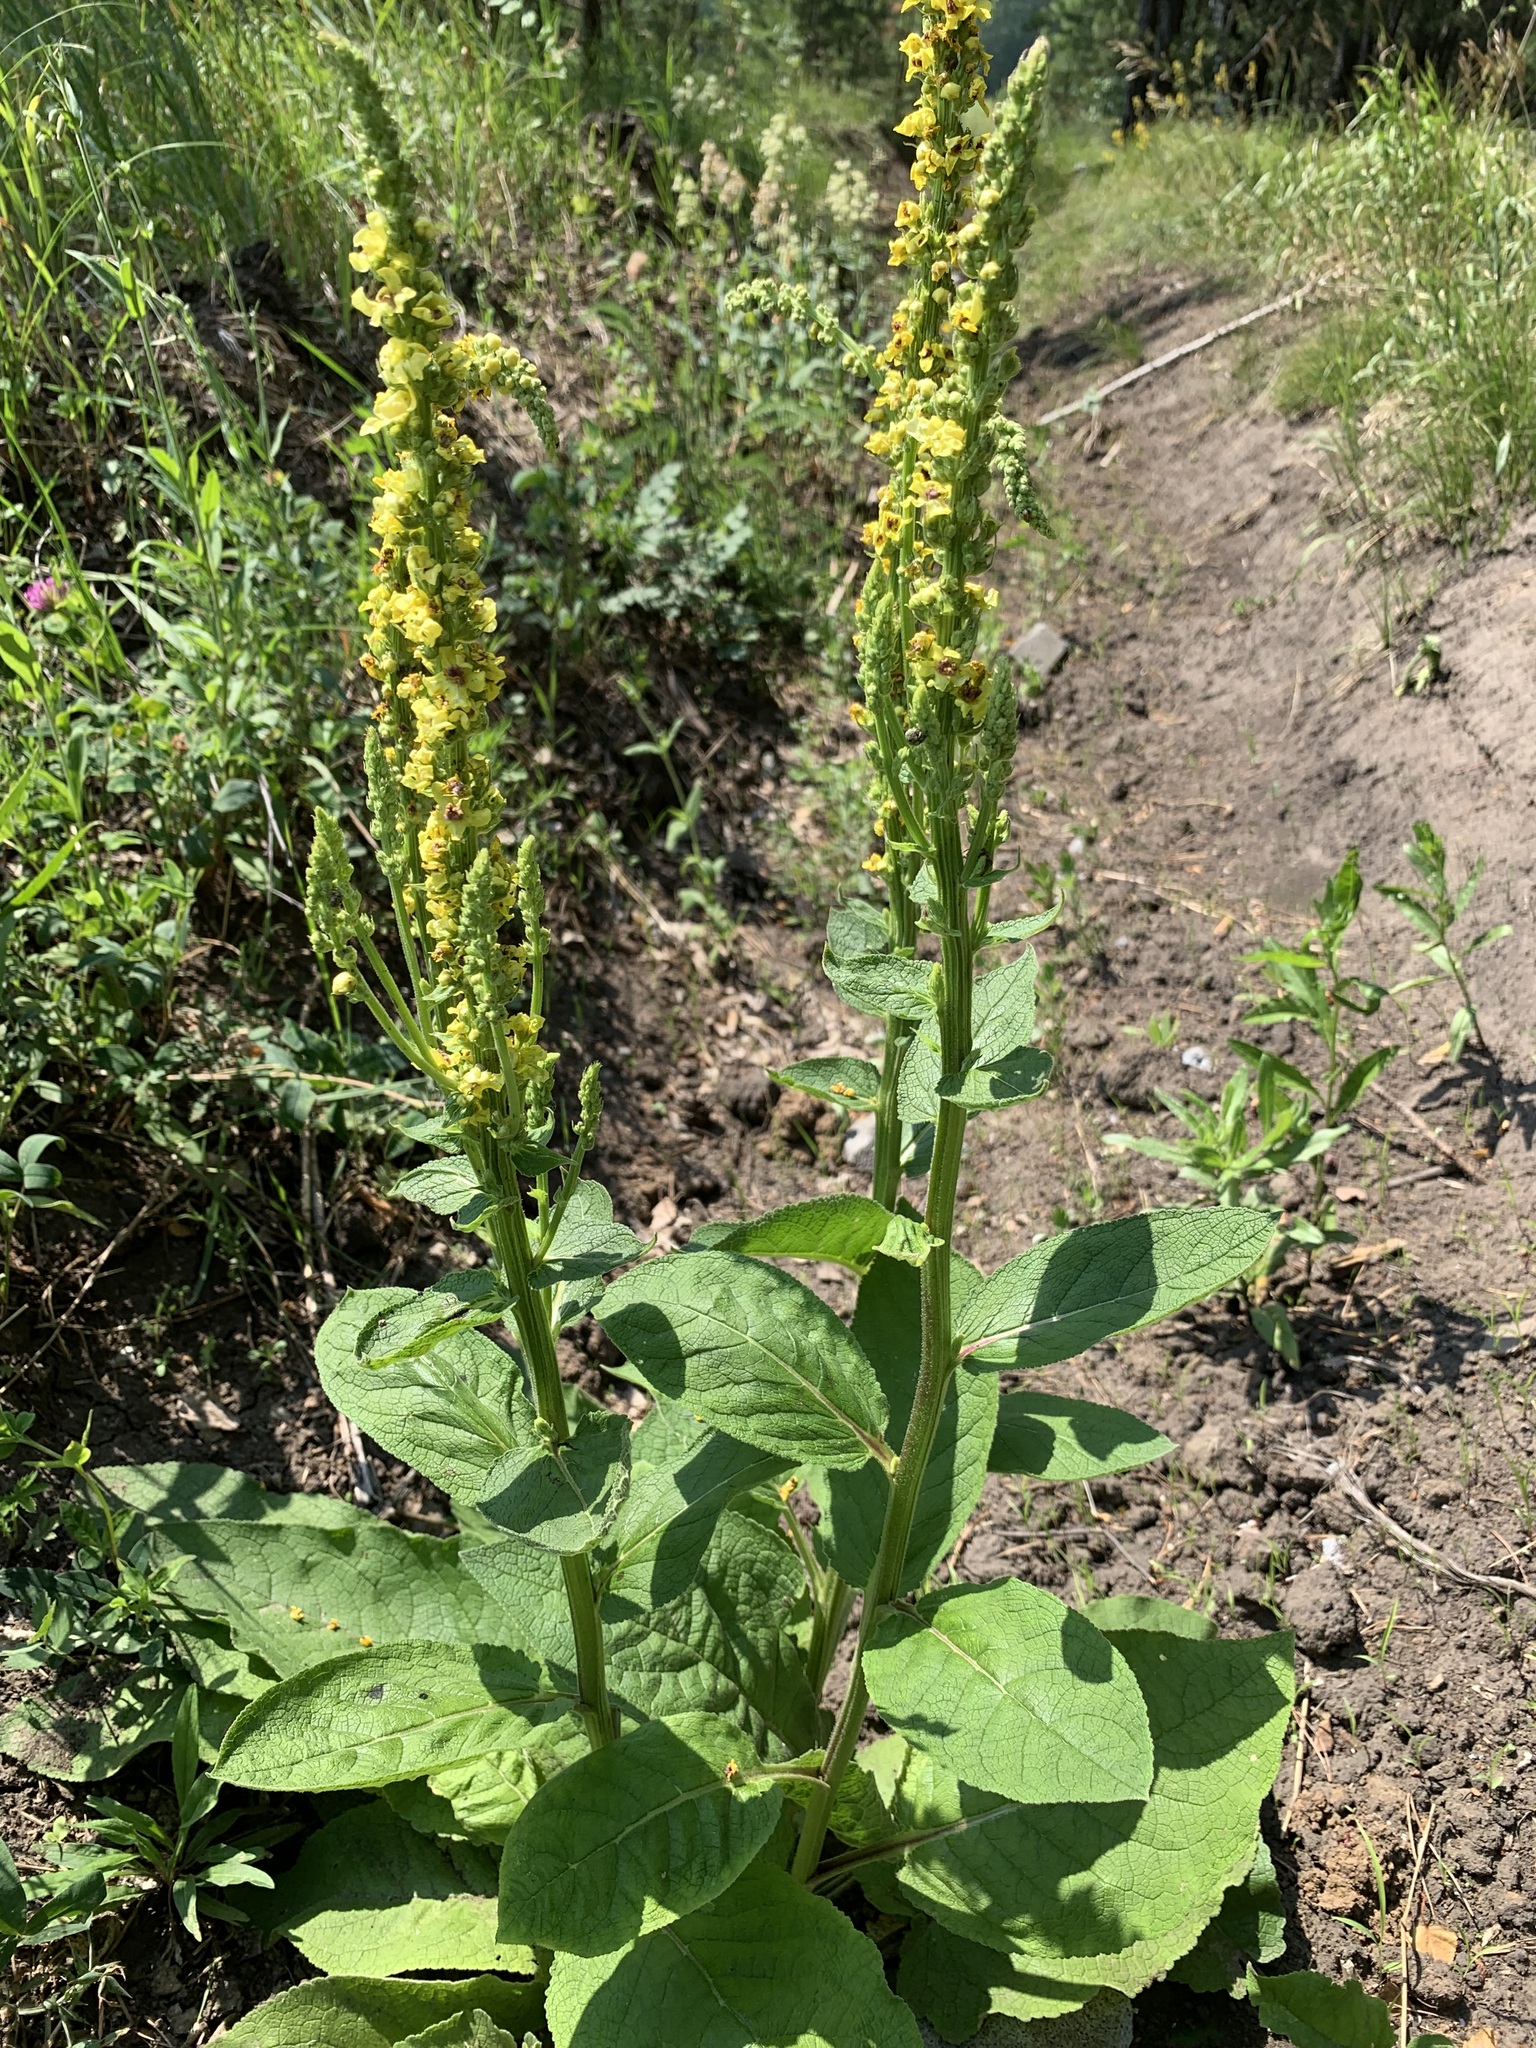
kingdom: Plantae
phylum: Tracheophyta
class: Magnoliopsida
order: Lamiales
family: Scrophulariaceae
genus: Verbascum
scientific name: Verbascum nigrum
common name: Dark mullein
